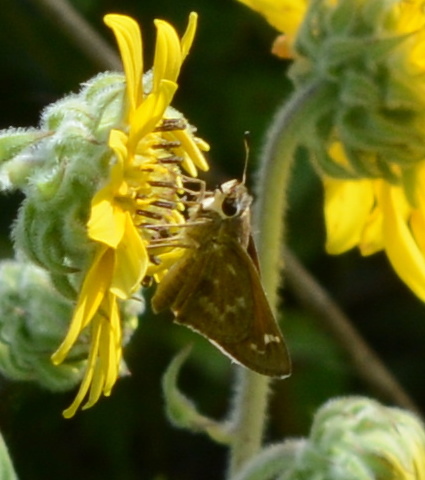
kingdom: Animalia
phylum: Arthropoda
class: Insecta
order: Lepidoptera
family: Hesperiidae
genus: Atalopedes
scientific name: Atalopedes
